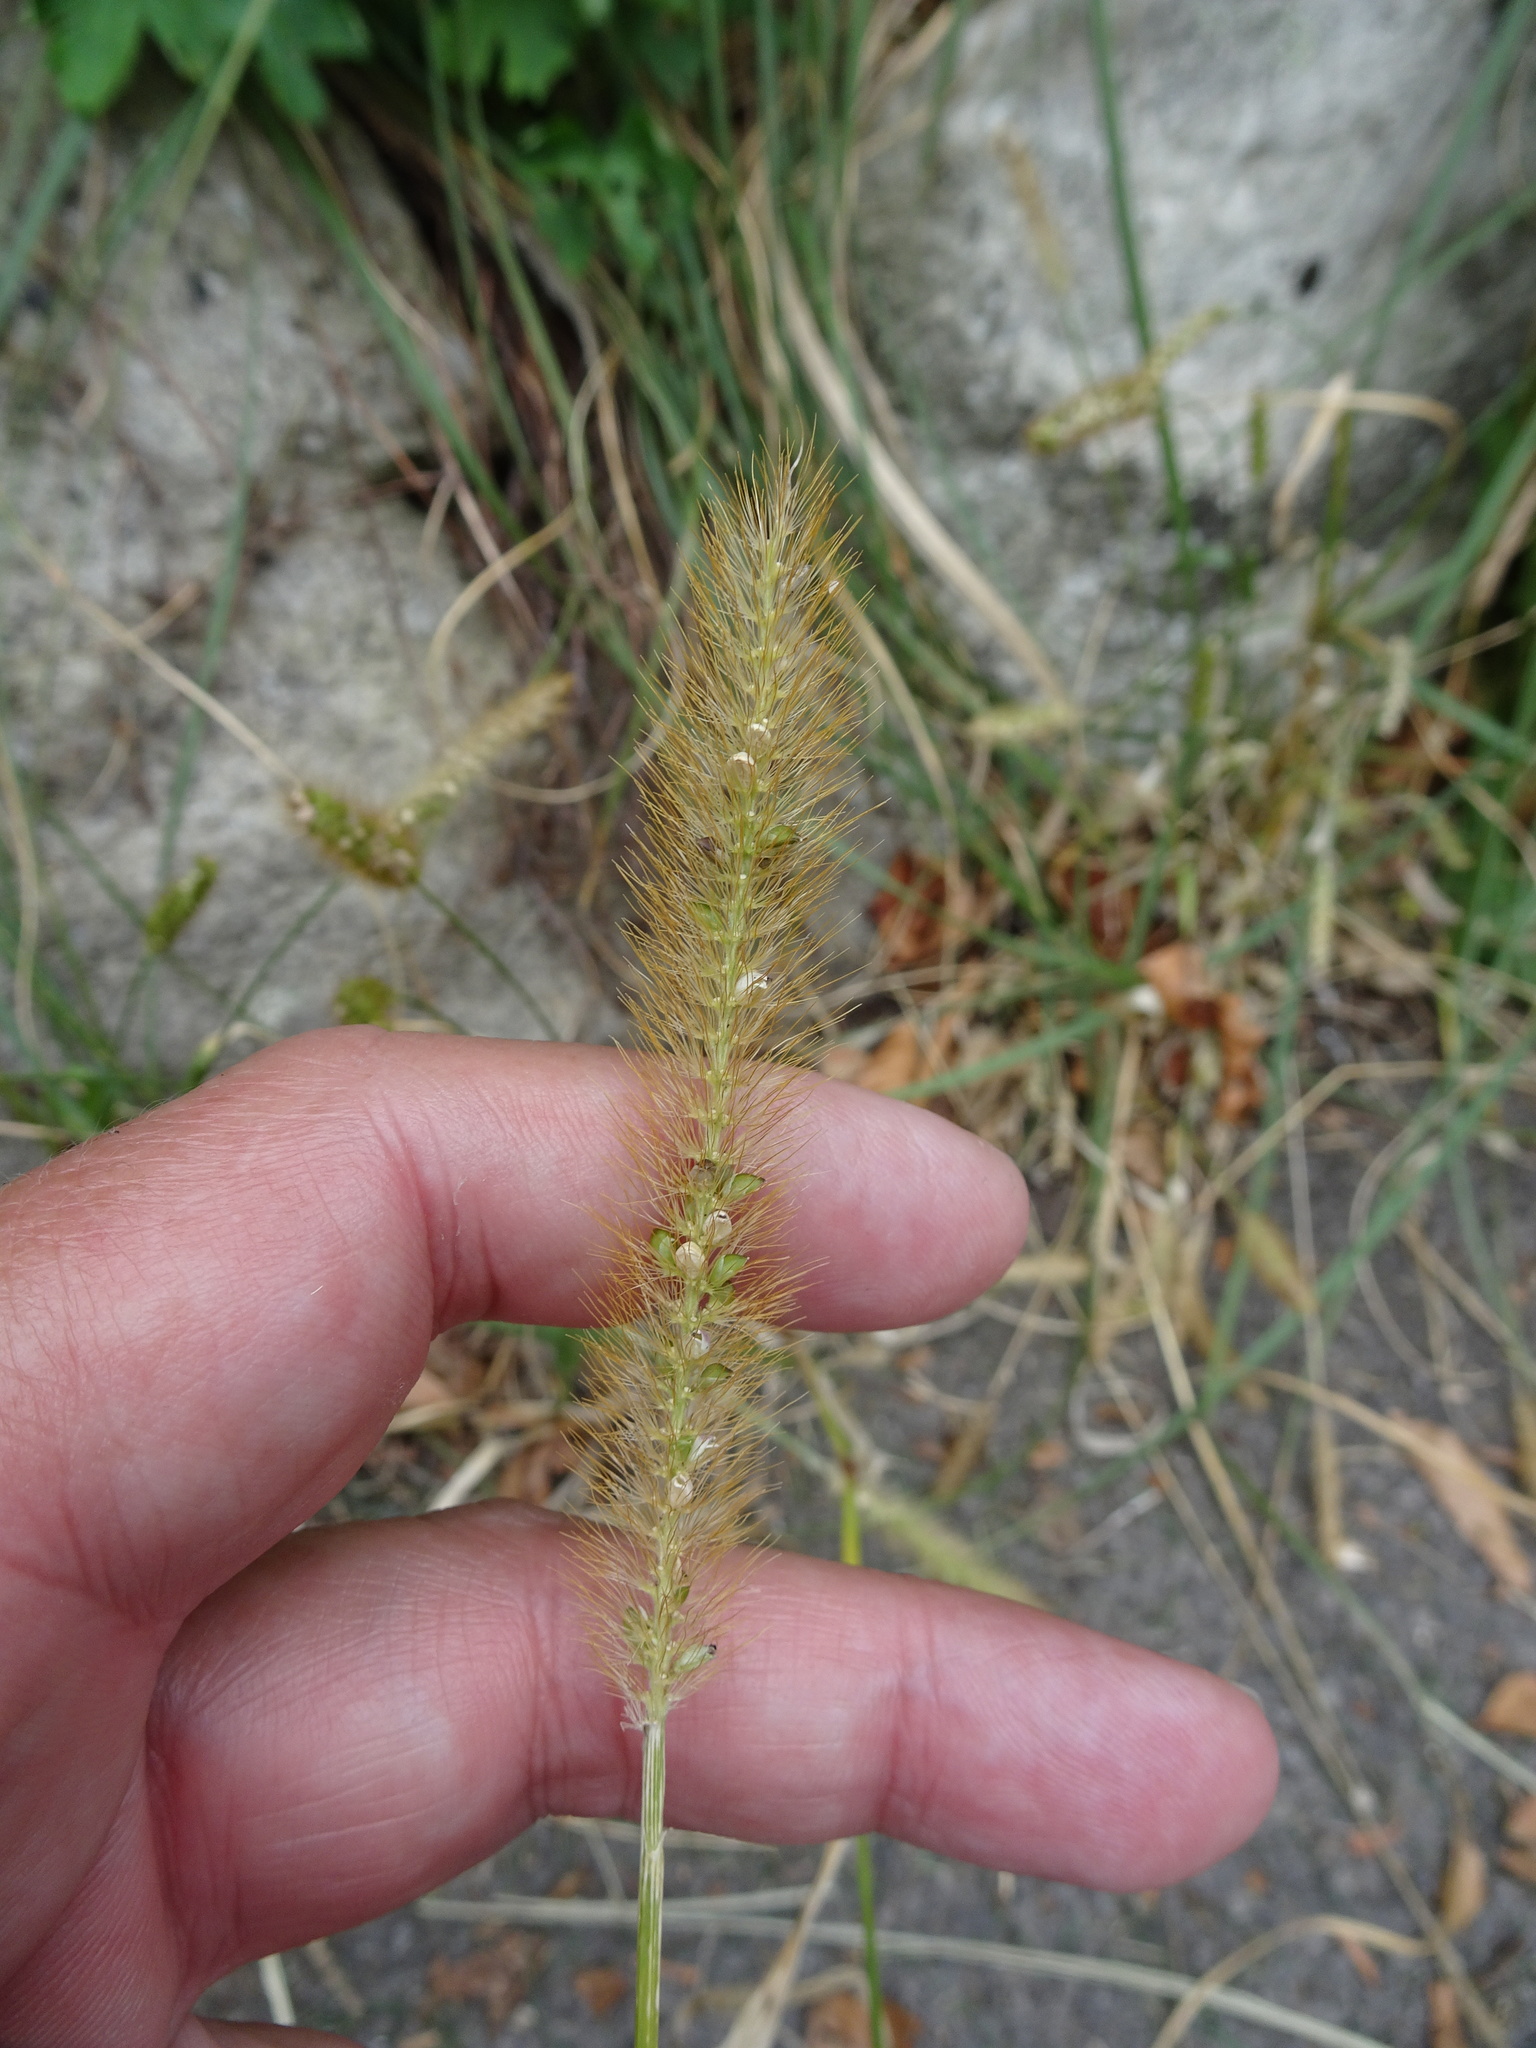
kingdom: Plantae
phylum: Tracheophyta
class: Liliopsida
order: Poales
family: Poaceae
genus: Setaria
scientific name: Setaria pumila
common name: Yellow bristle-grass
